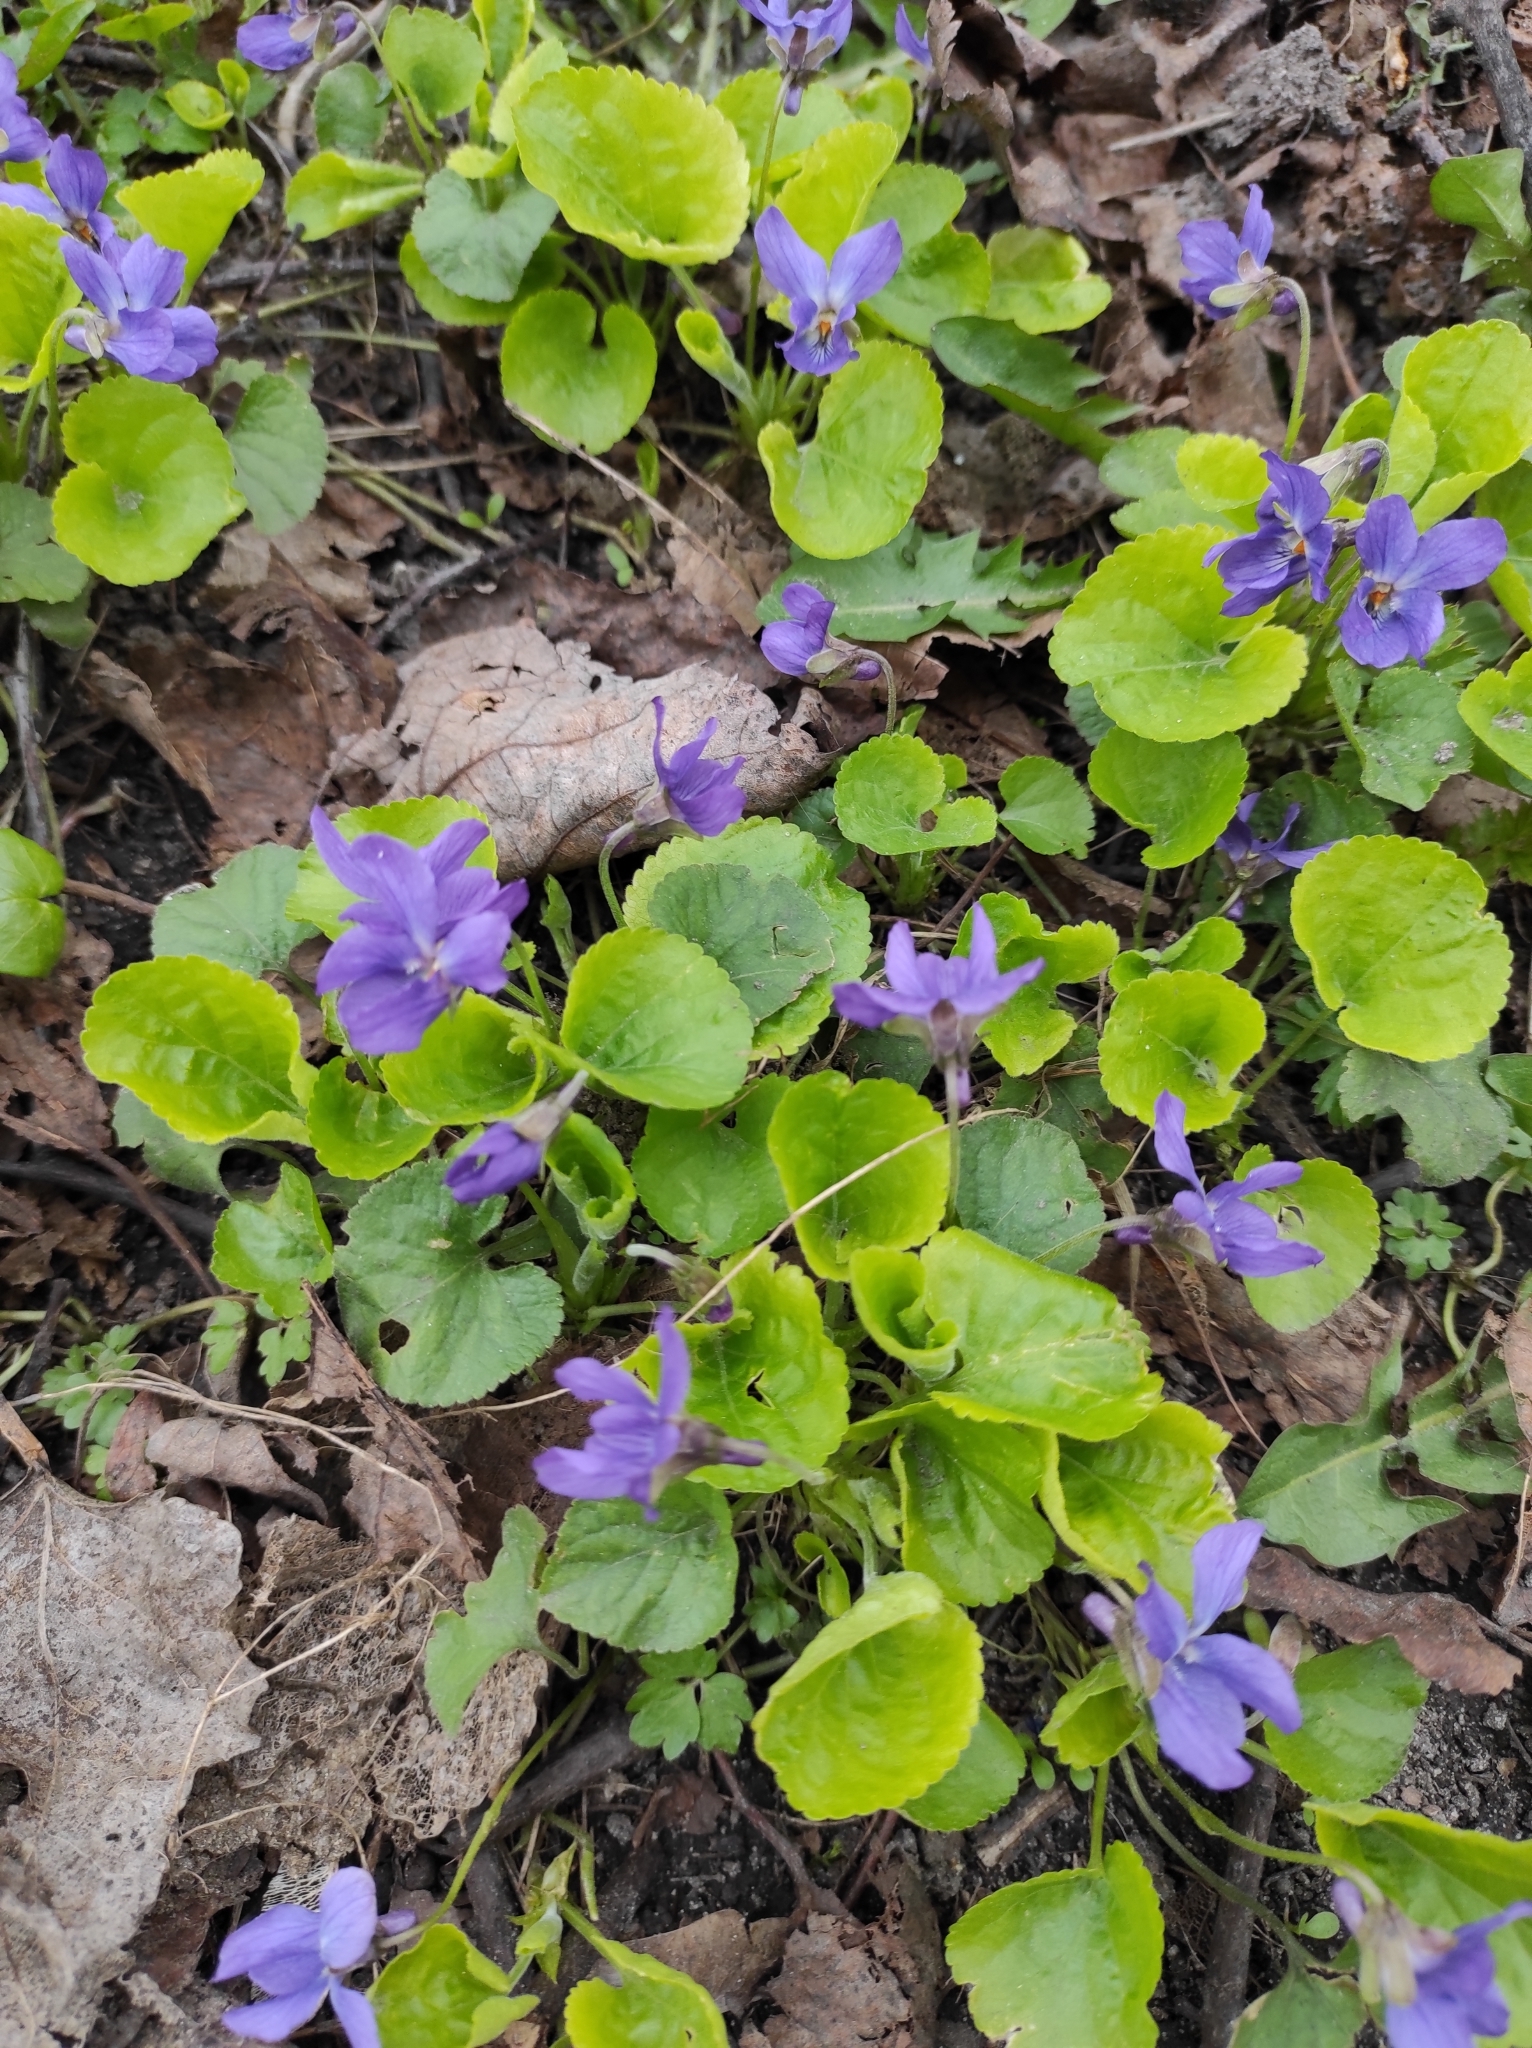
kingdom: Plantae
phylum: Tracheophyta
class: Magnoliopsida
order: Malpighiales
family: Violaceae
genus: Viola
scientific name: Viola odorata
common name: Sweet violet
